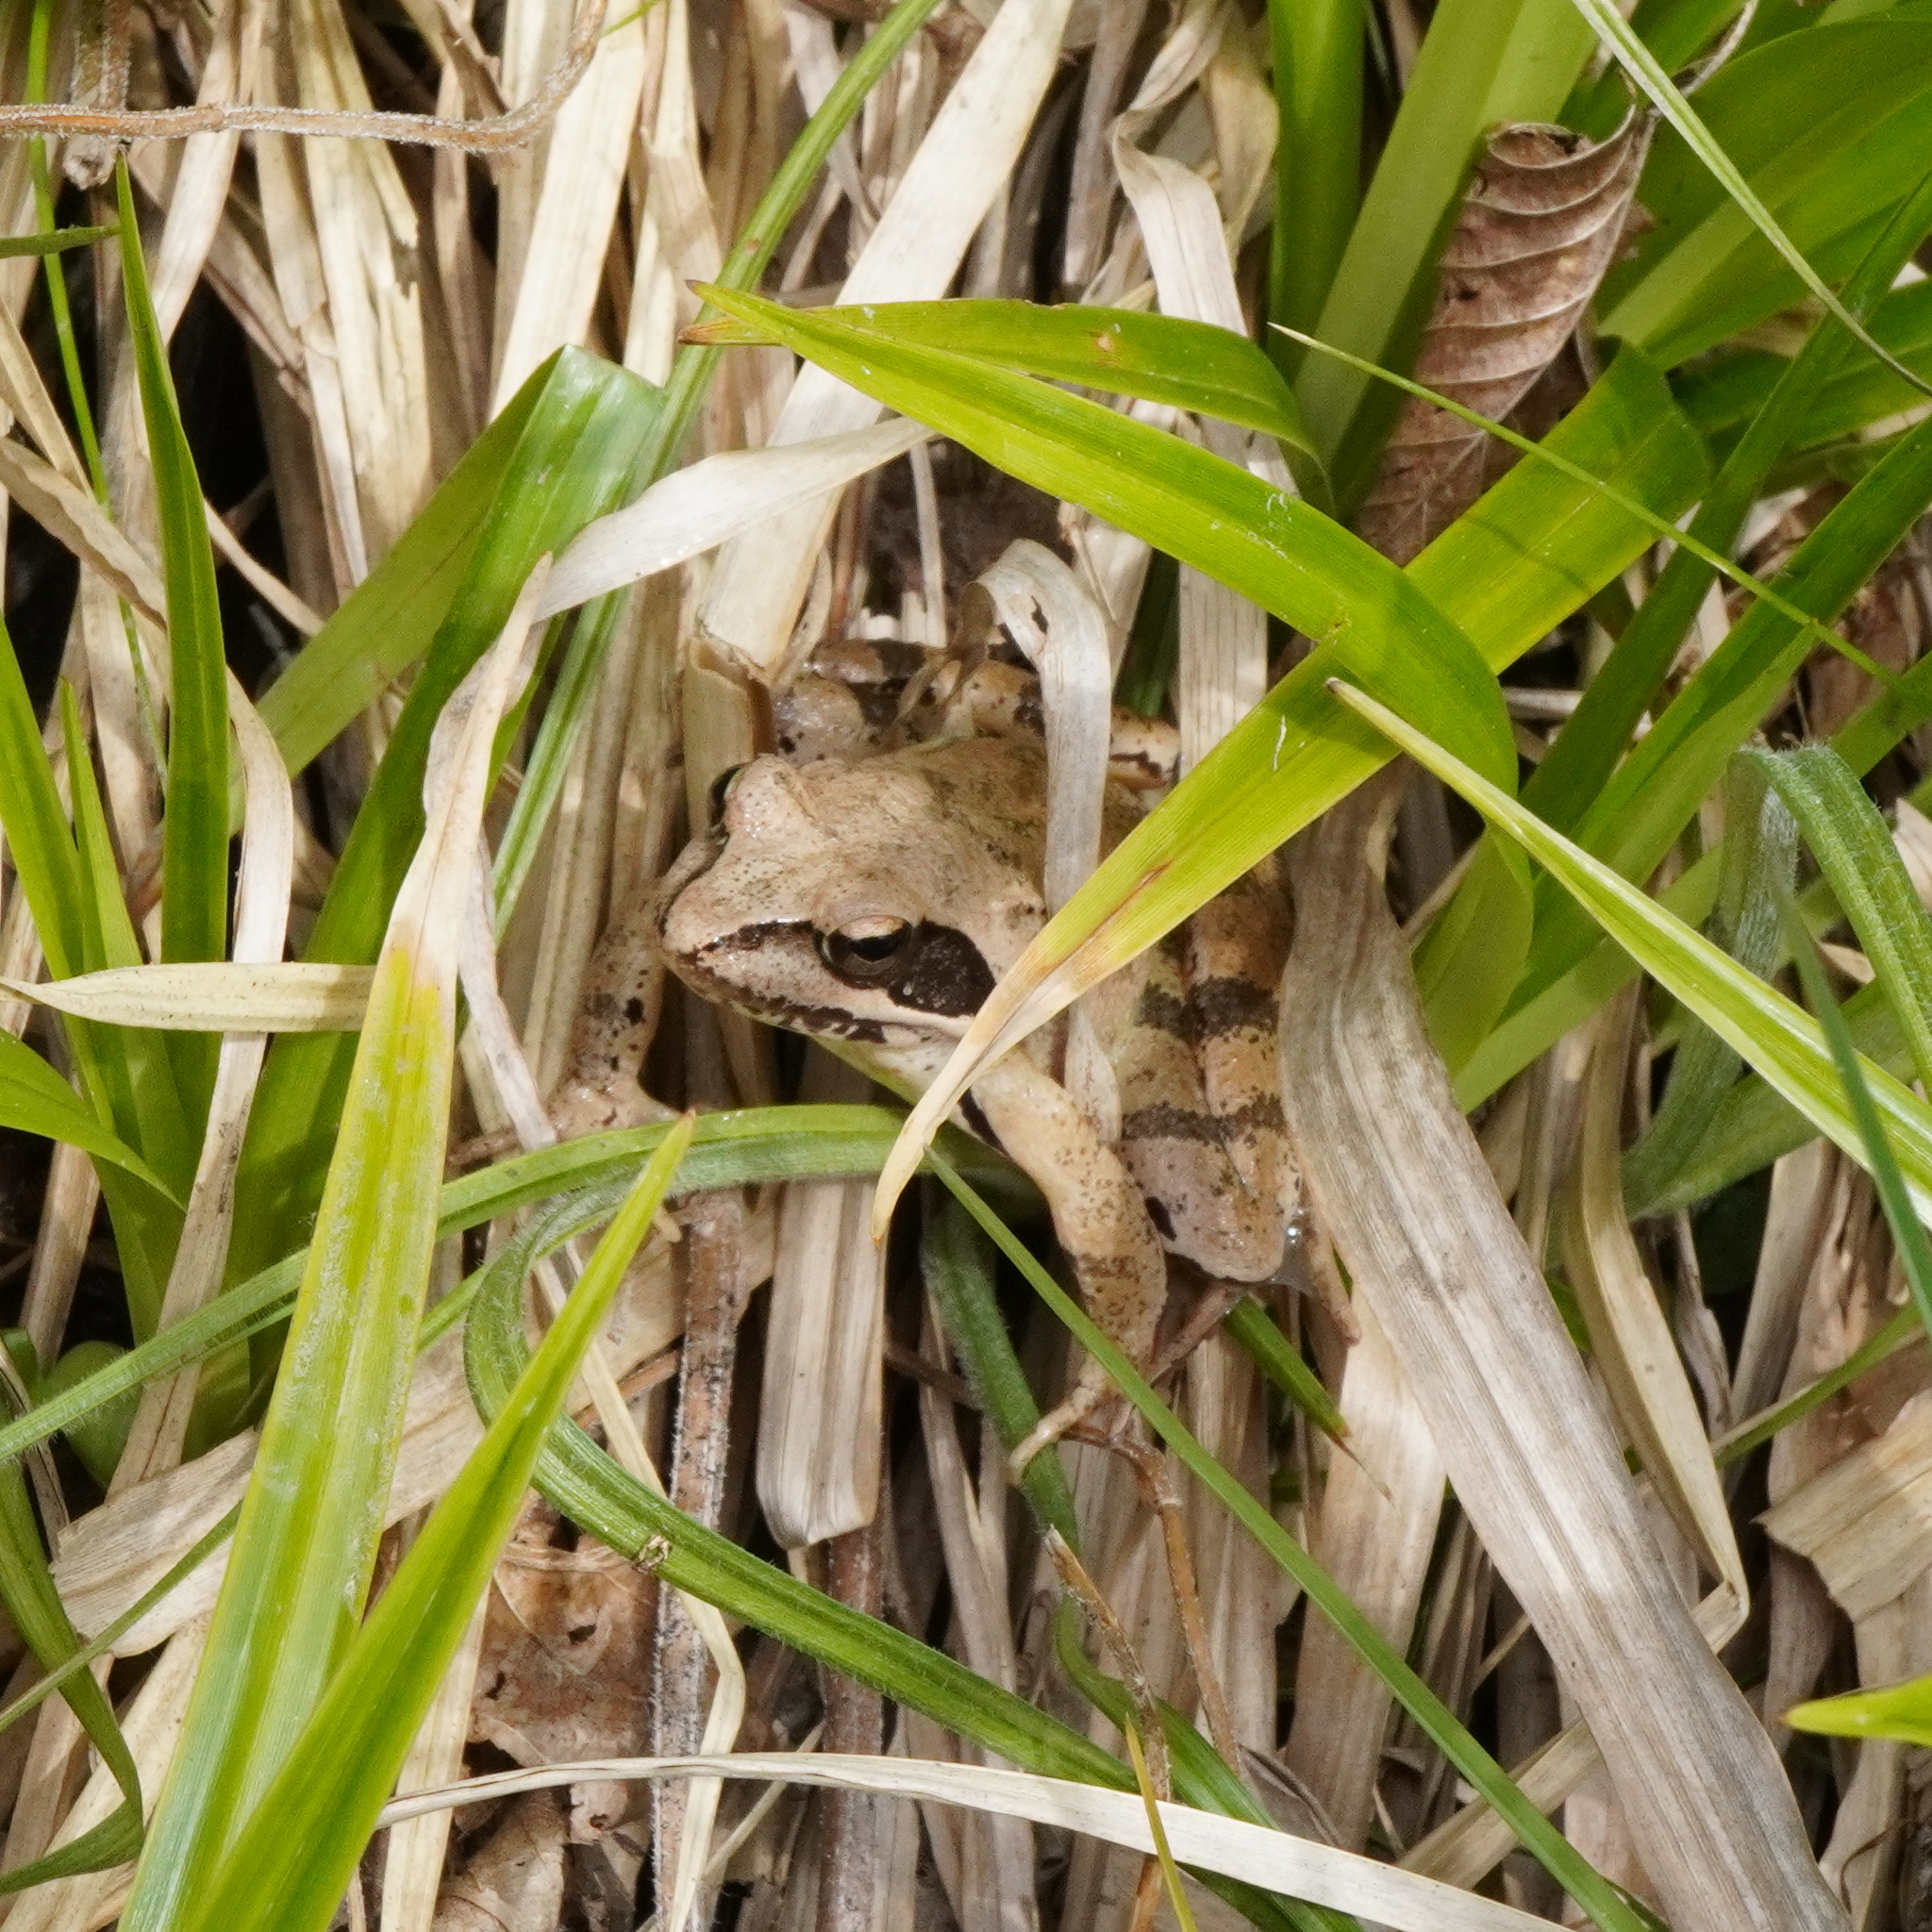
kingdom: Animalia
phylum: Chordata
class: Amphibia
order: Anura
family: Ranidae
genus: Rana
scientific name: Rana dalmatina
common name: Agile frog
